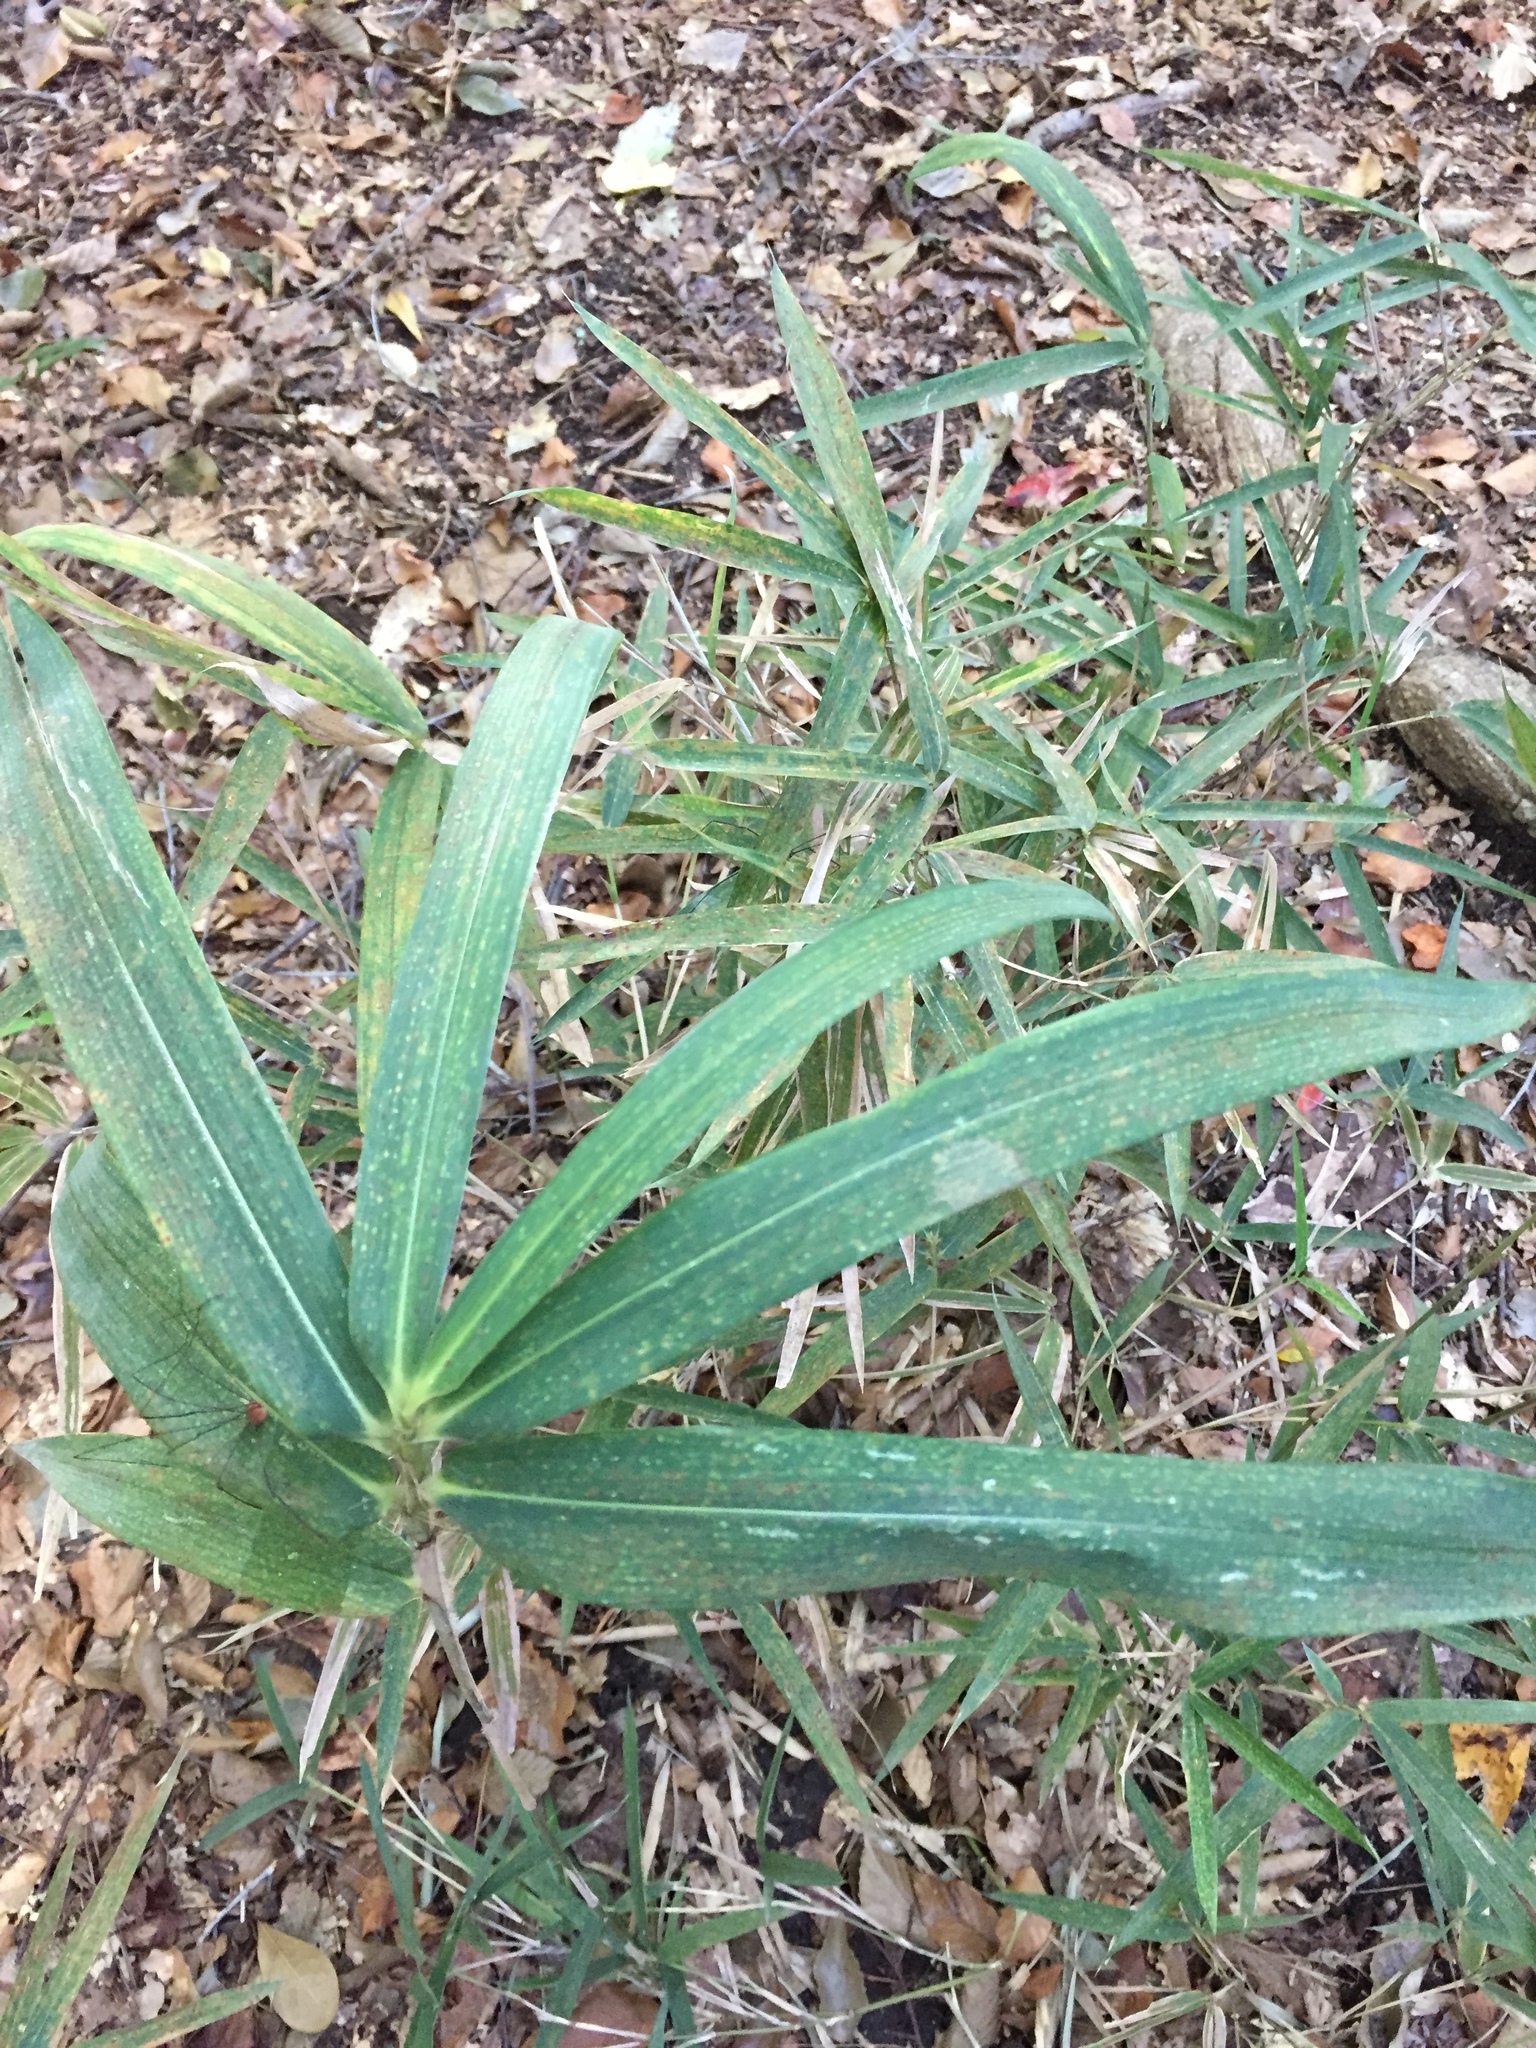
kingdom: Plantae
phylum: Tracheophyta
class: Liliopsida
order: Poales
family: Poaceae
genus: Arundinaria
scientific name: Arundinaria gigantea
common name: Giant cane
